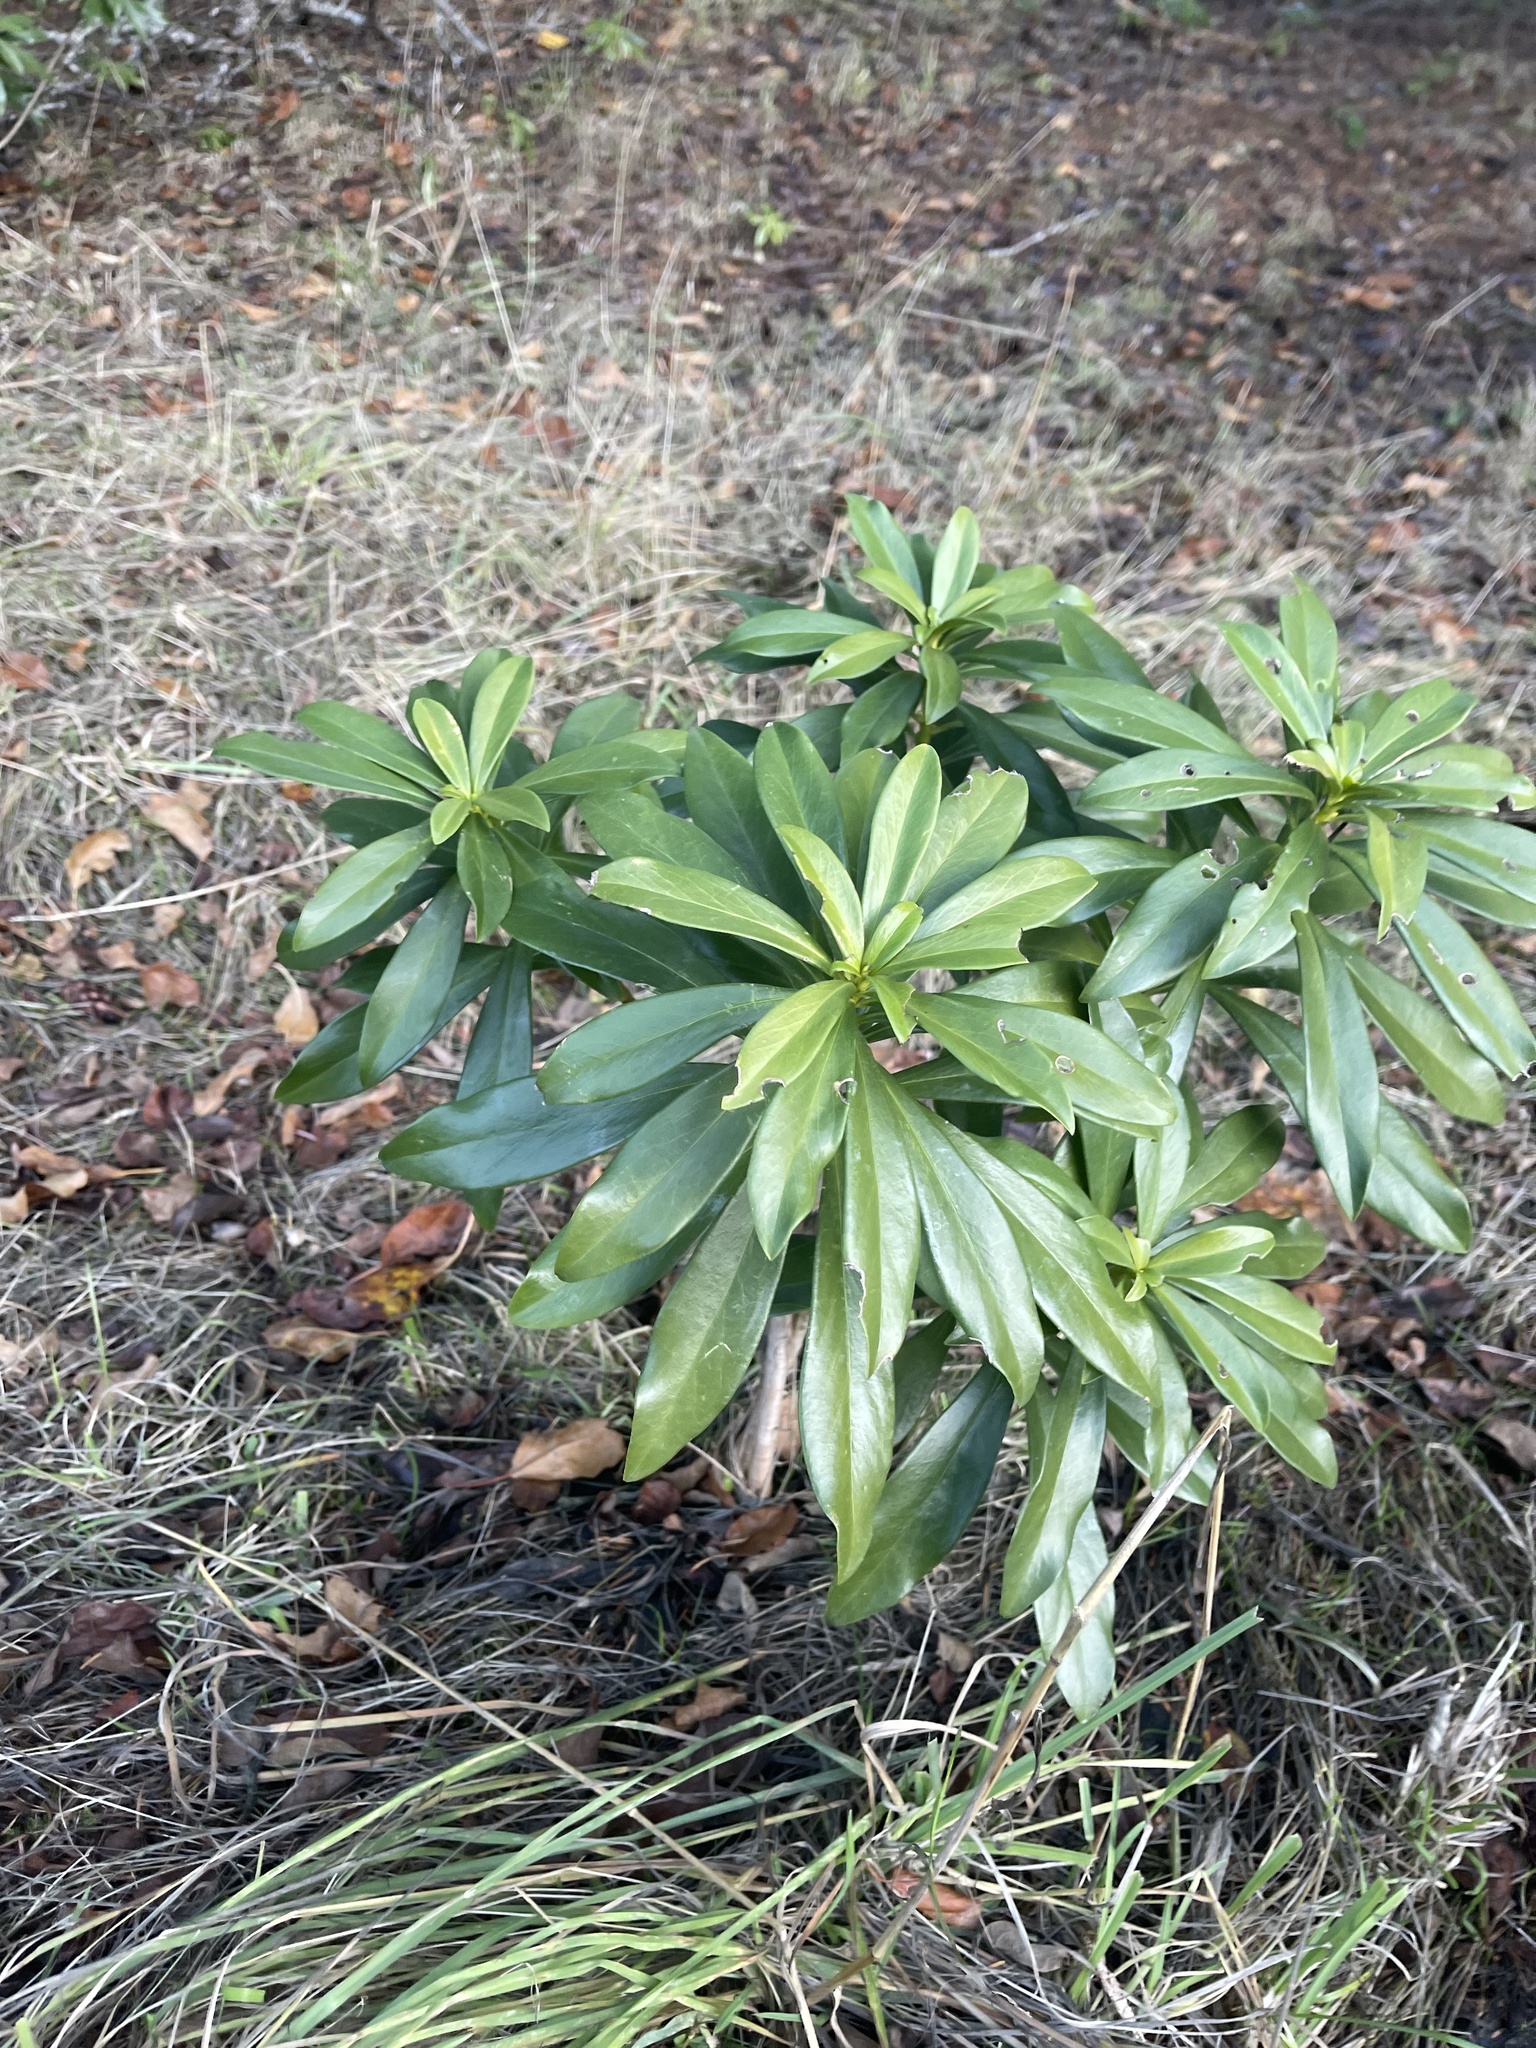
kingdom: Plantae
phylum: Tracheophyta
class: Magnoliopsida
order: Malvales
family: Thymelaeaceae
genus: Daphne
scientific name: Daphne laureola
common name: Spurge-laurel
